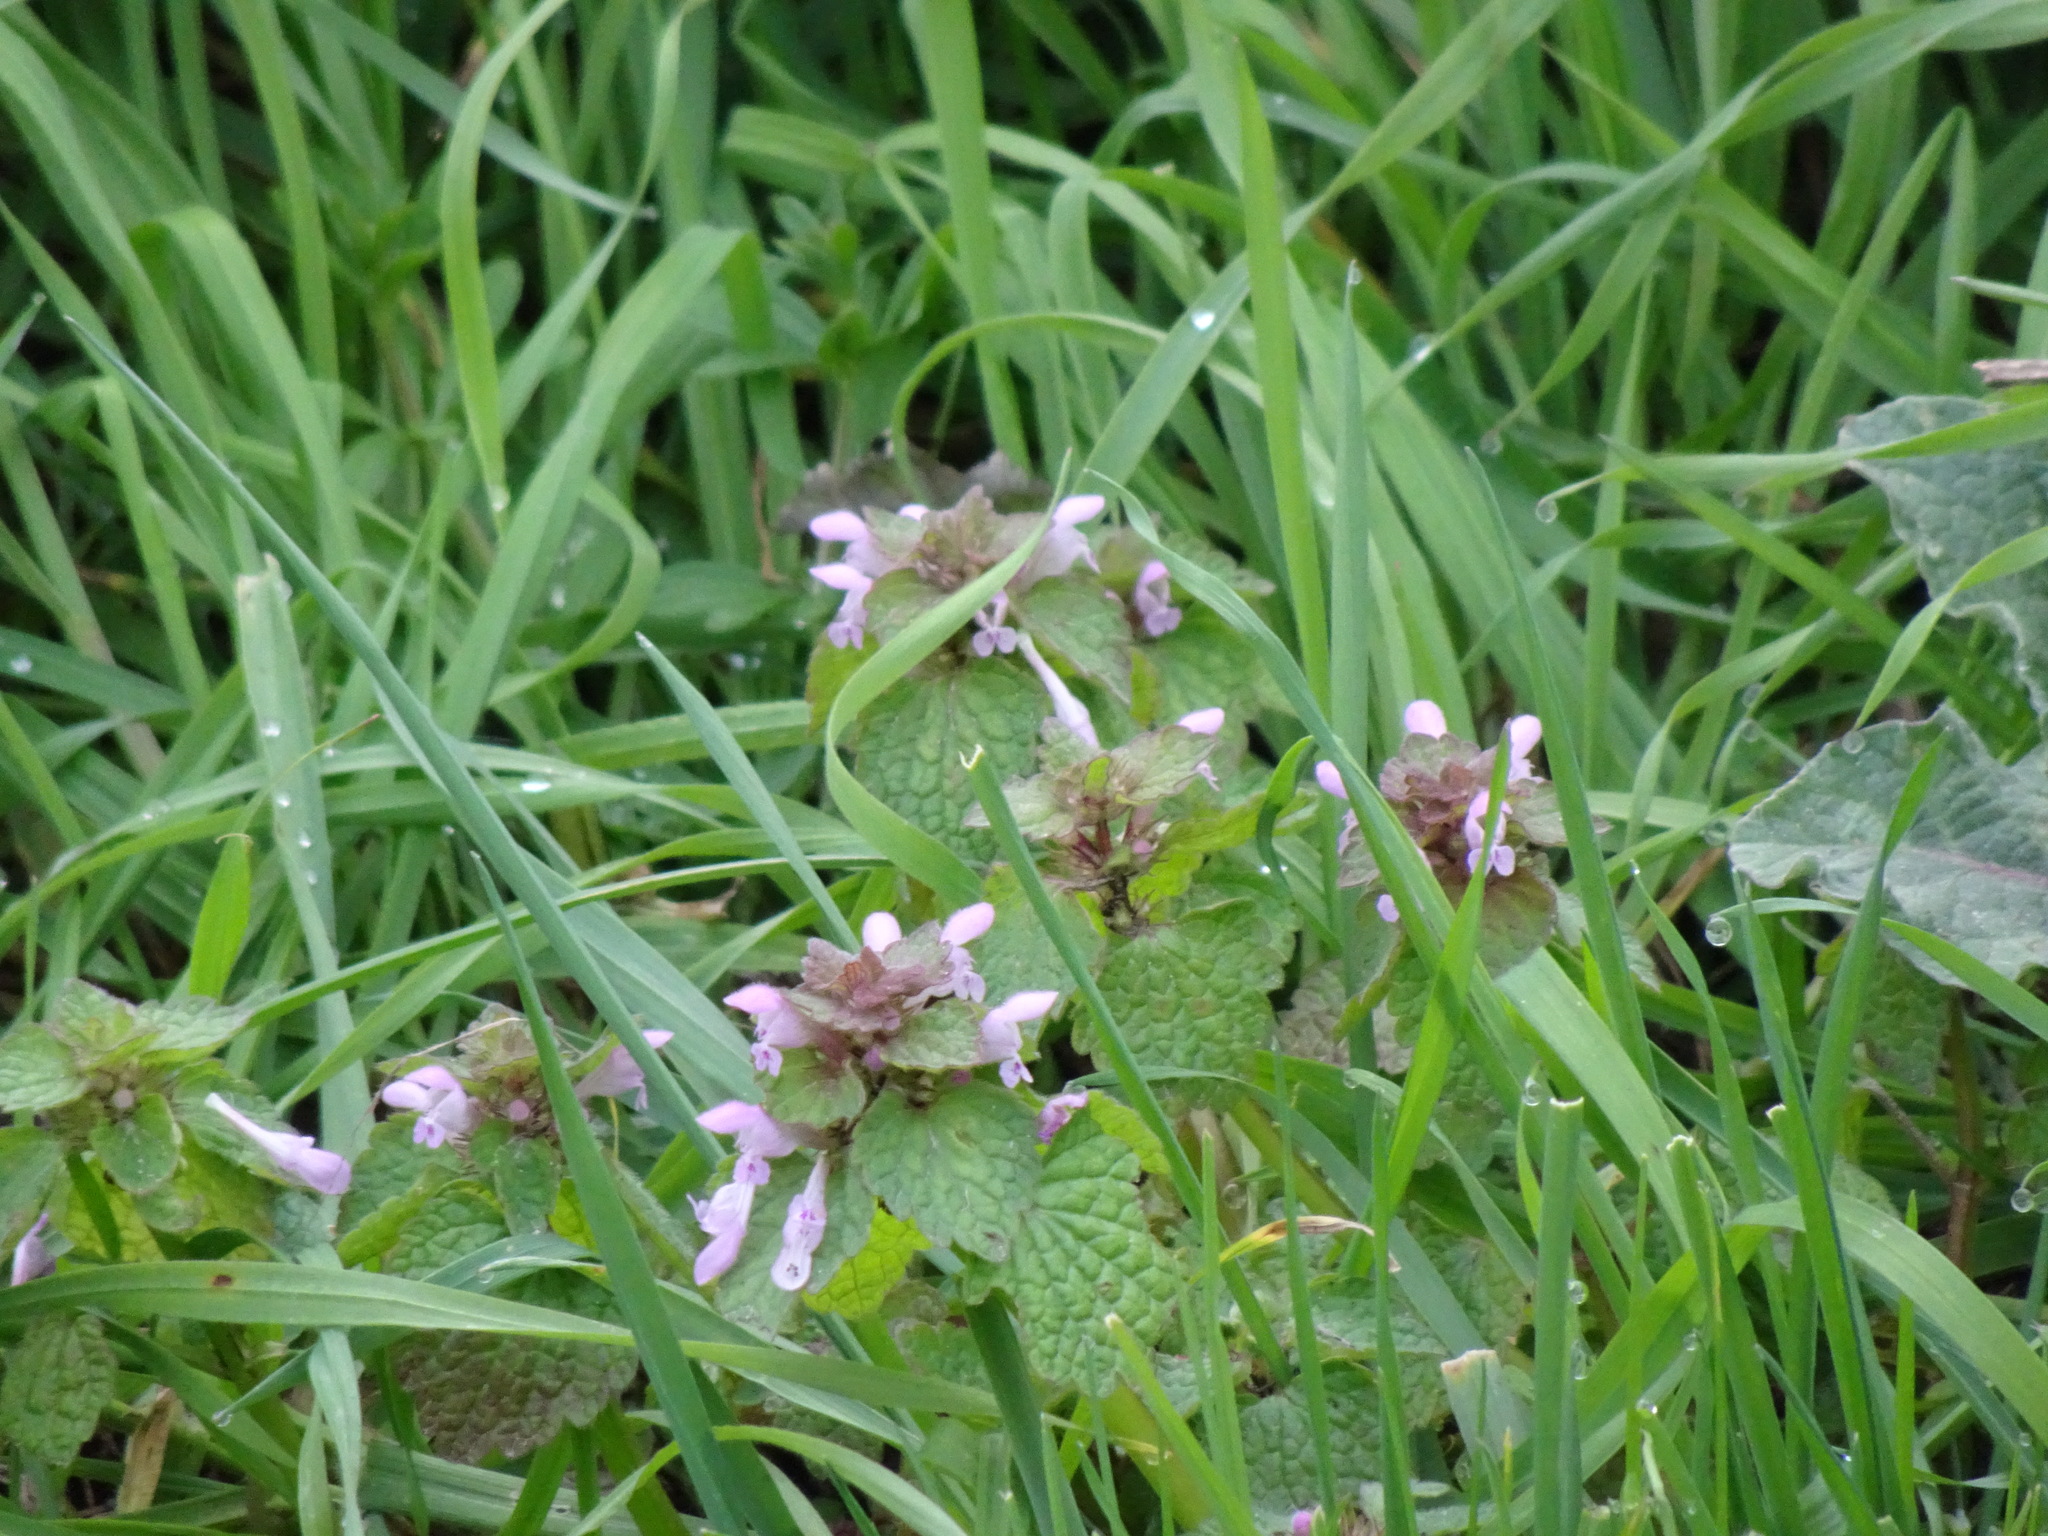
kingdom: Plantae
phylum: Tracheophyta
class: Magnoliopsida
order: Lamiales
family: Lamiaceae
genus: Lamium
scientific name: Lamium purpureum
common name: Red dead-nettle
